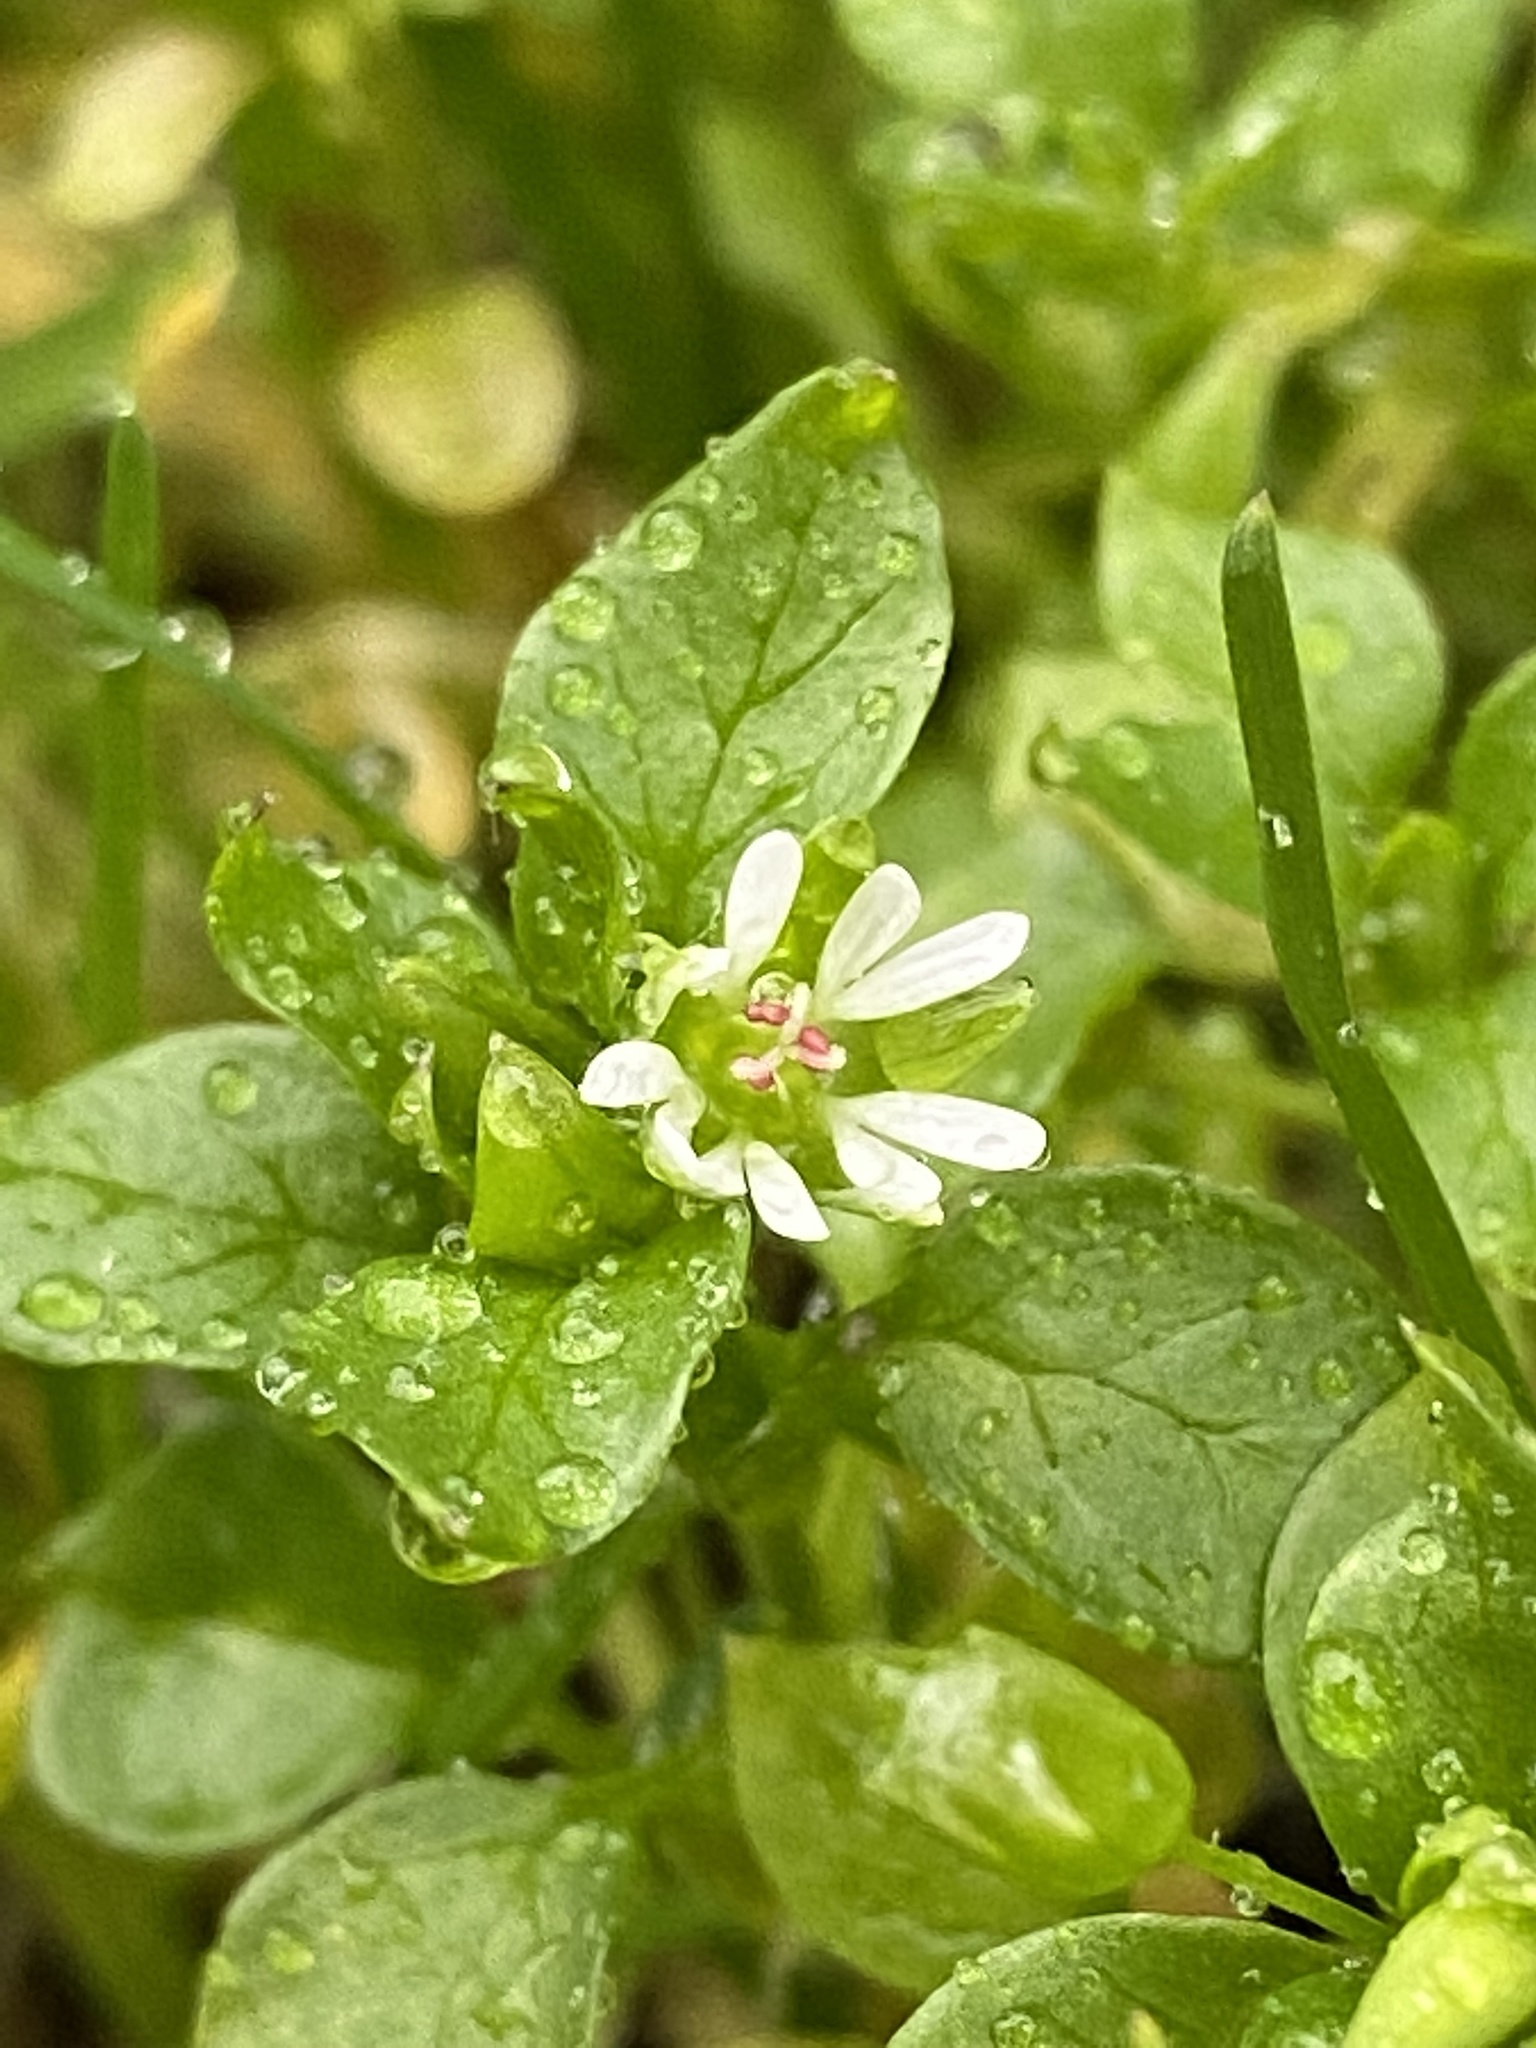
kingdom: Plantae
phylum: Tracheophyta
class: Magnoliopsida
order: Caryophyllales
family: Caryophyllaceae
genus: Stellaria
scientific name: Stellaria media
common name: Common chickweed
